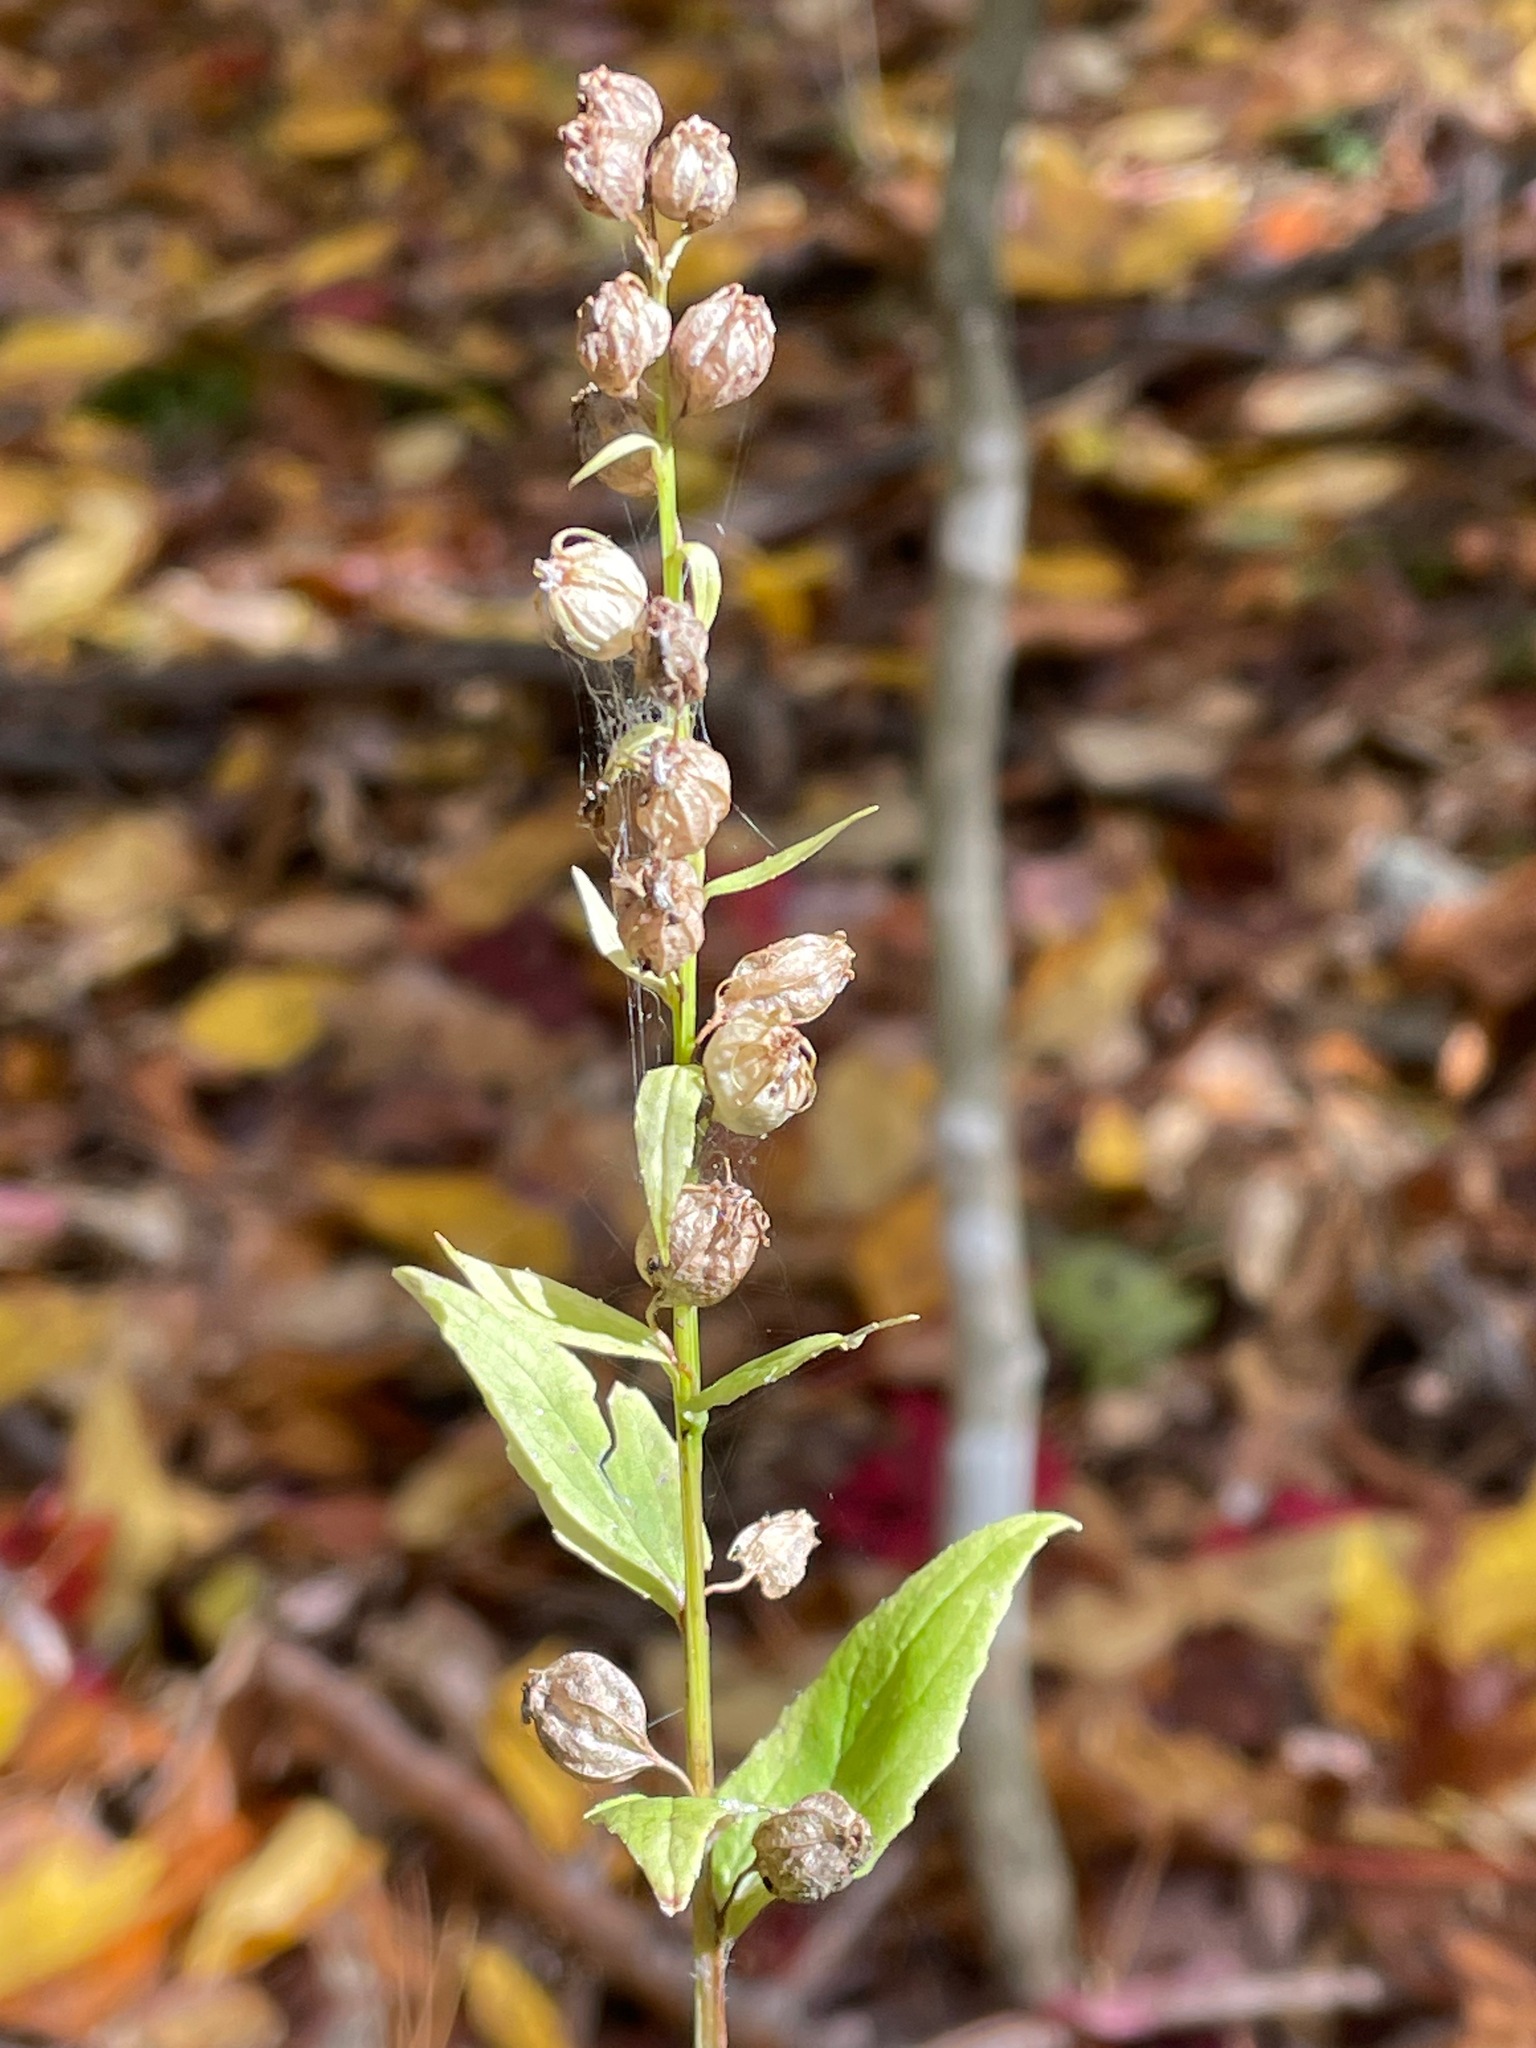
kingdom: Plantae
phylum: Tracheophyta
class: Magnoliopsida
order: Asterales
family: Campanulaceae
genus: Lobelia
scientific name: Lobelia inflata
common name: Indian tobacco
